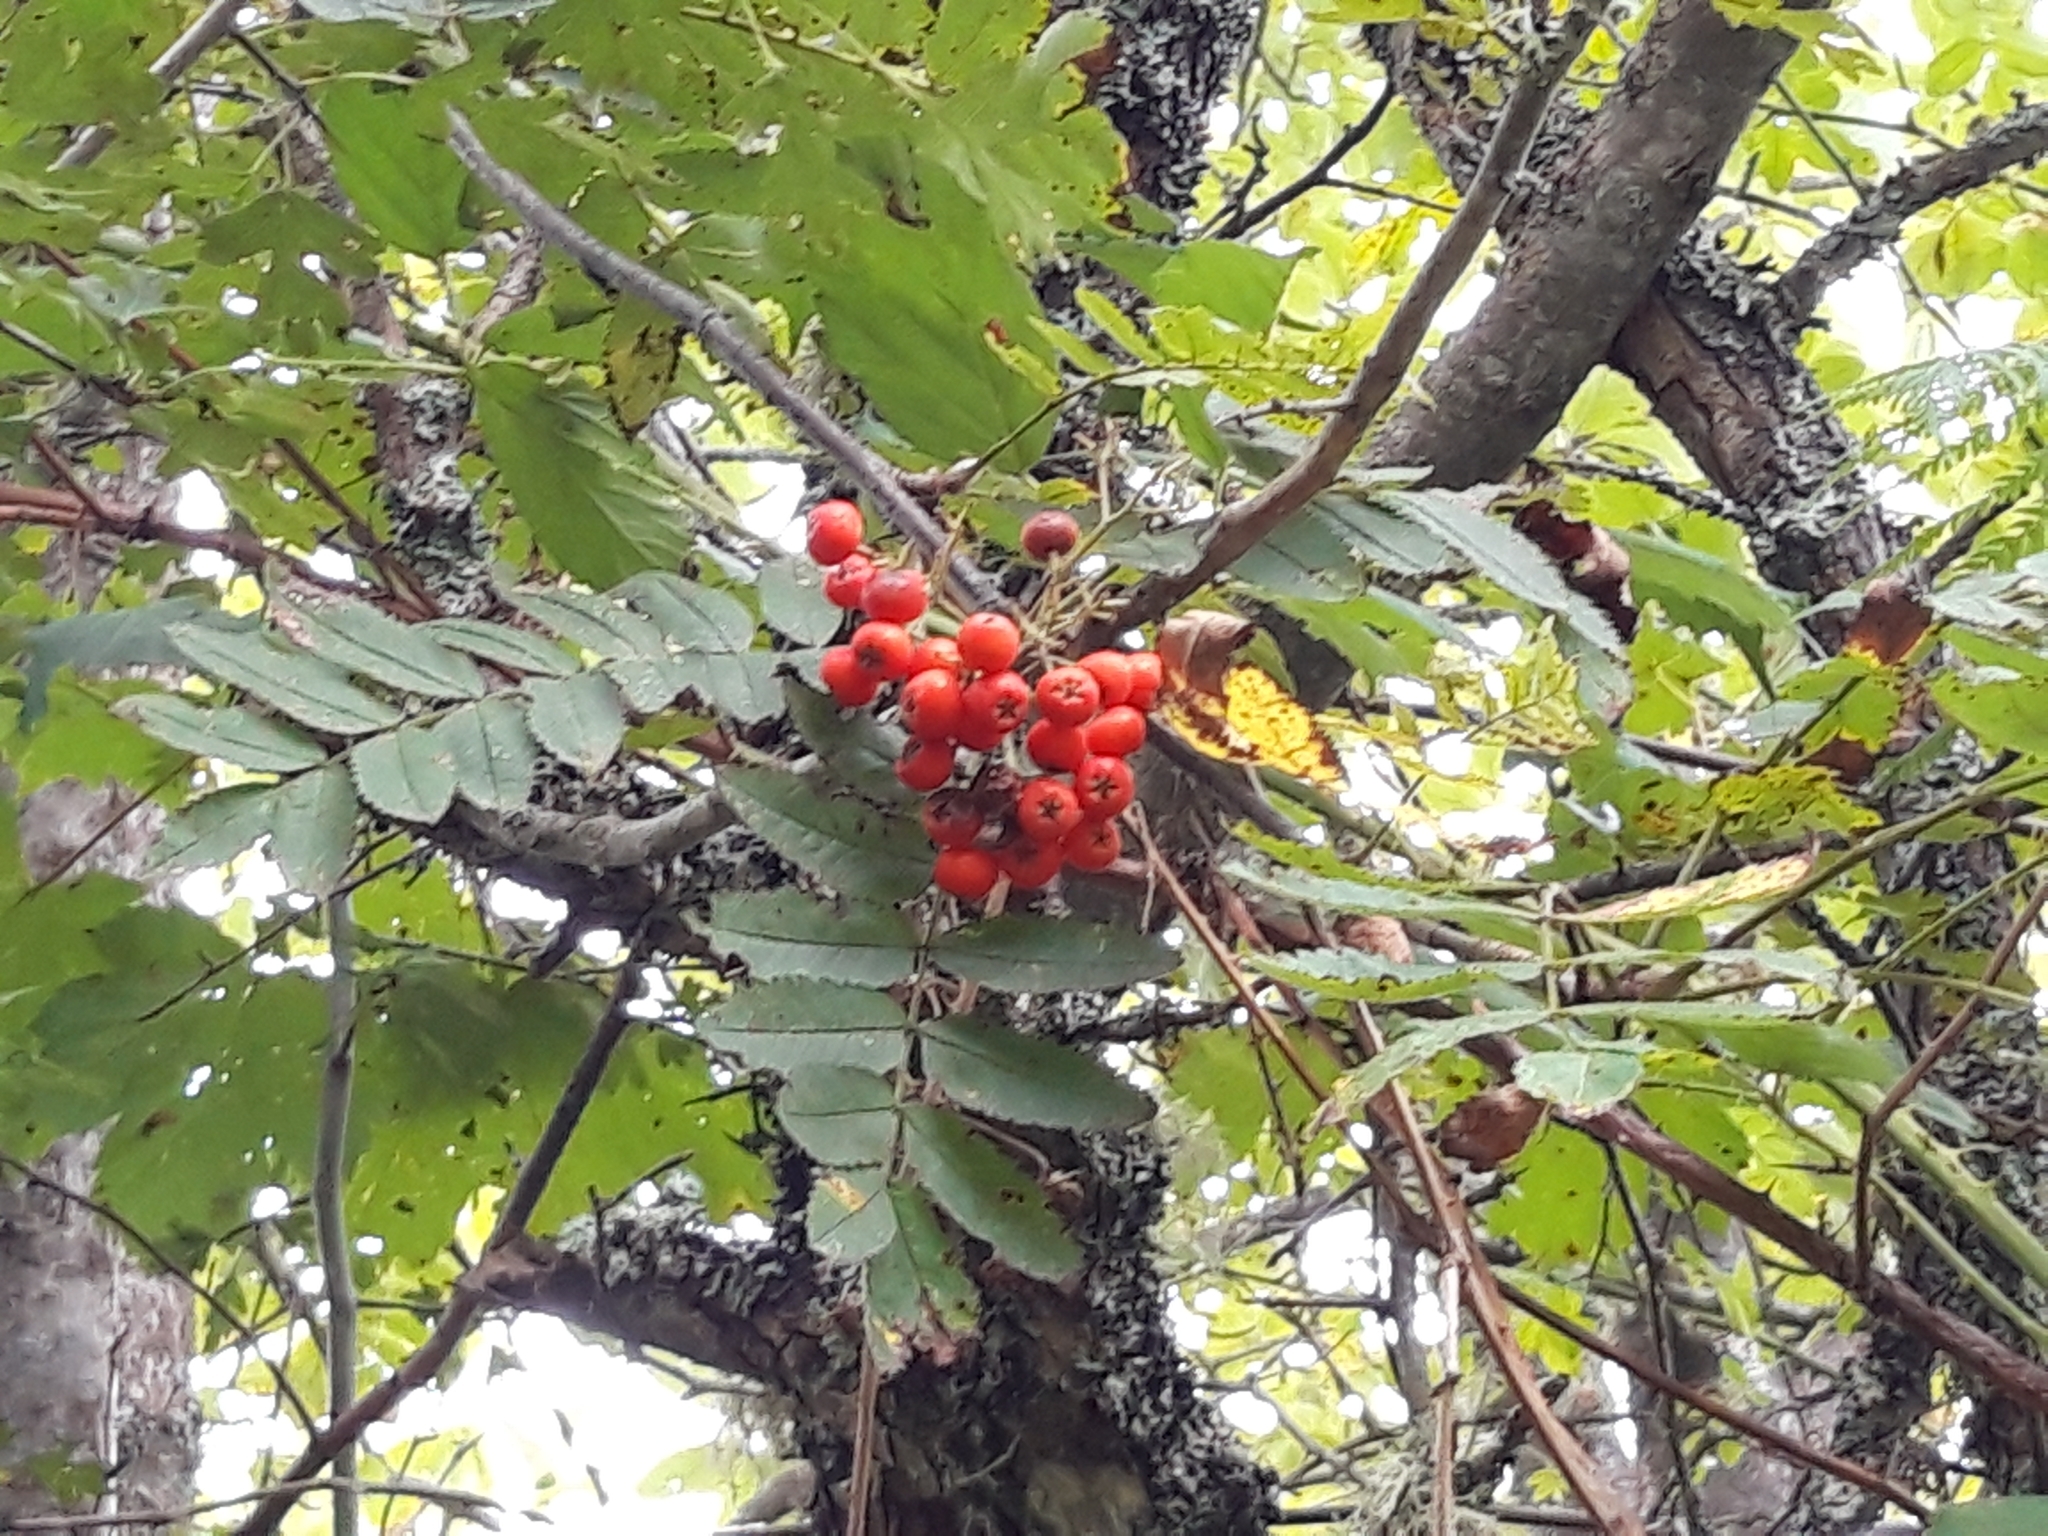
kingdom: Plantae
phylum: Tracheophyta
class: Magnoliopsida
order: Rosales
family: Rosaceae
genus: Sorbus
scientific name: Sorbus aucuparia
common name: Rowan
